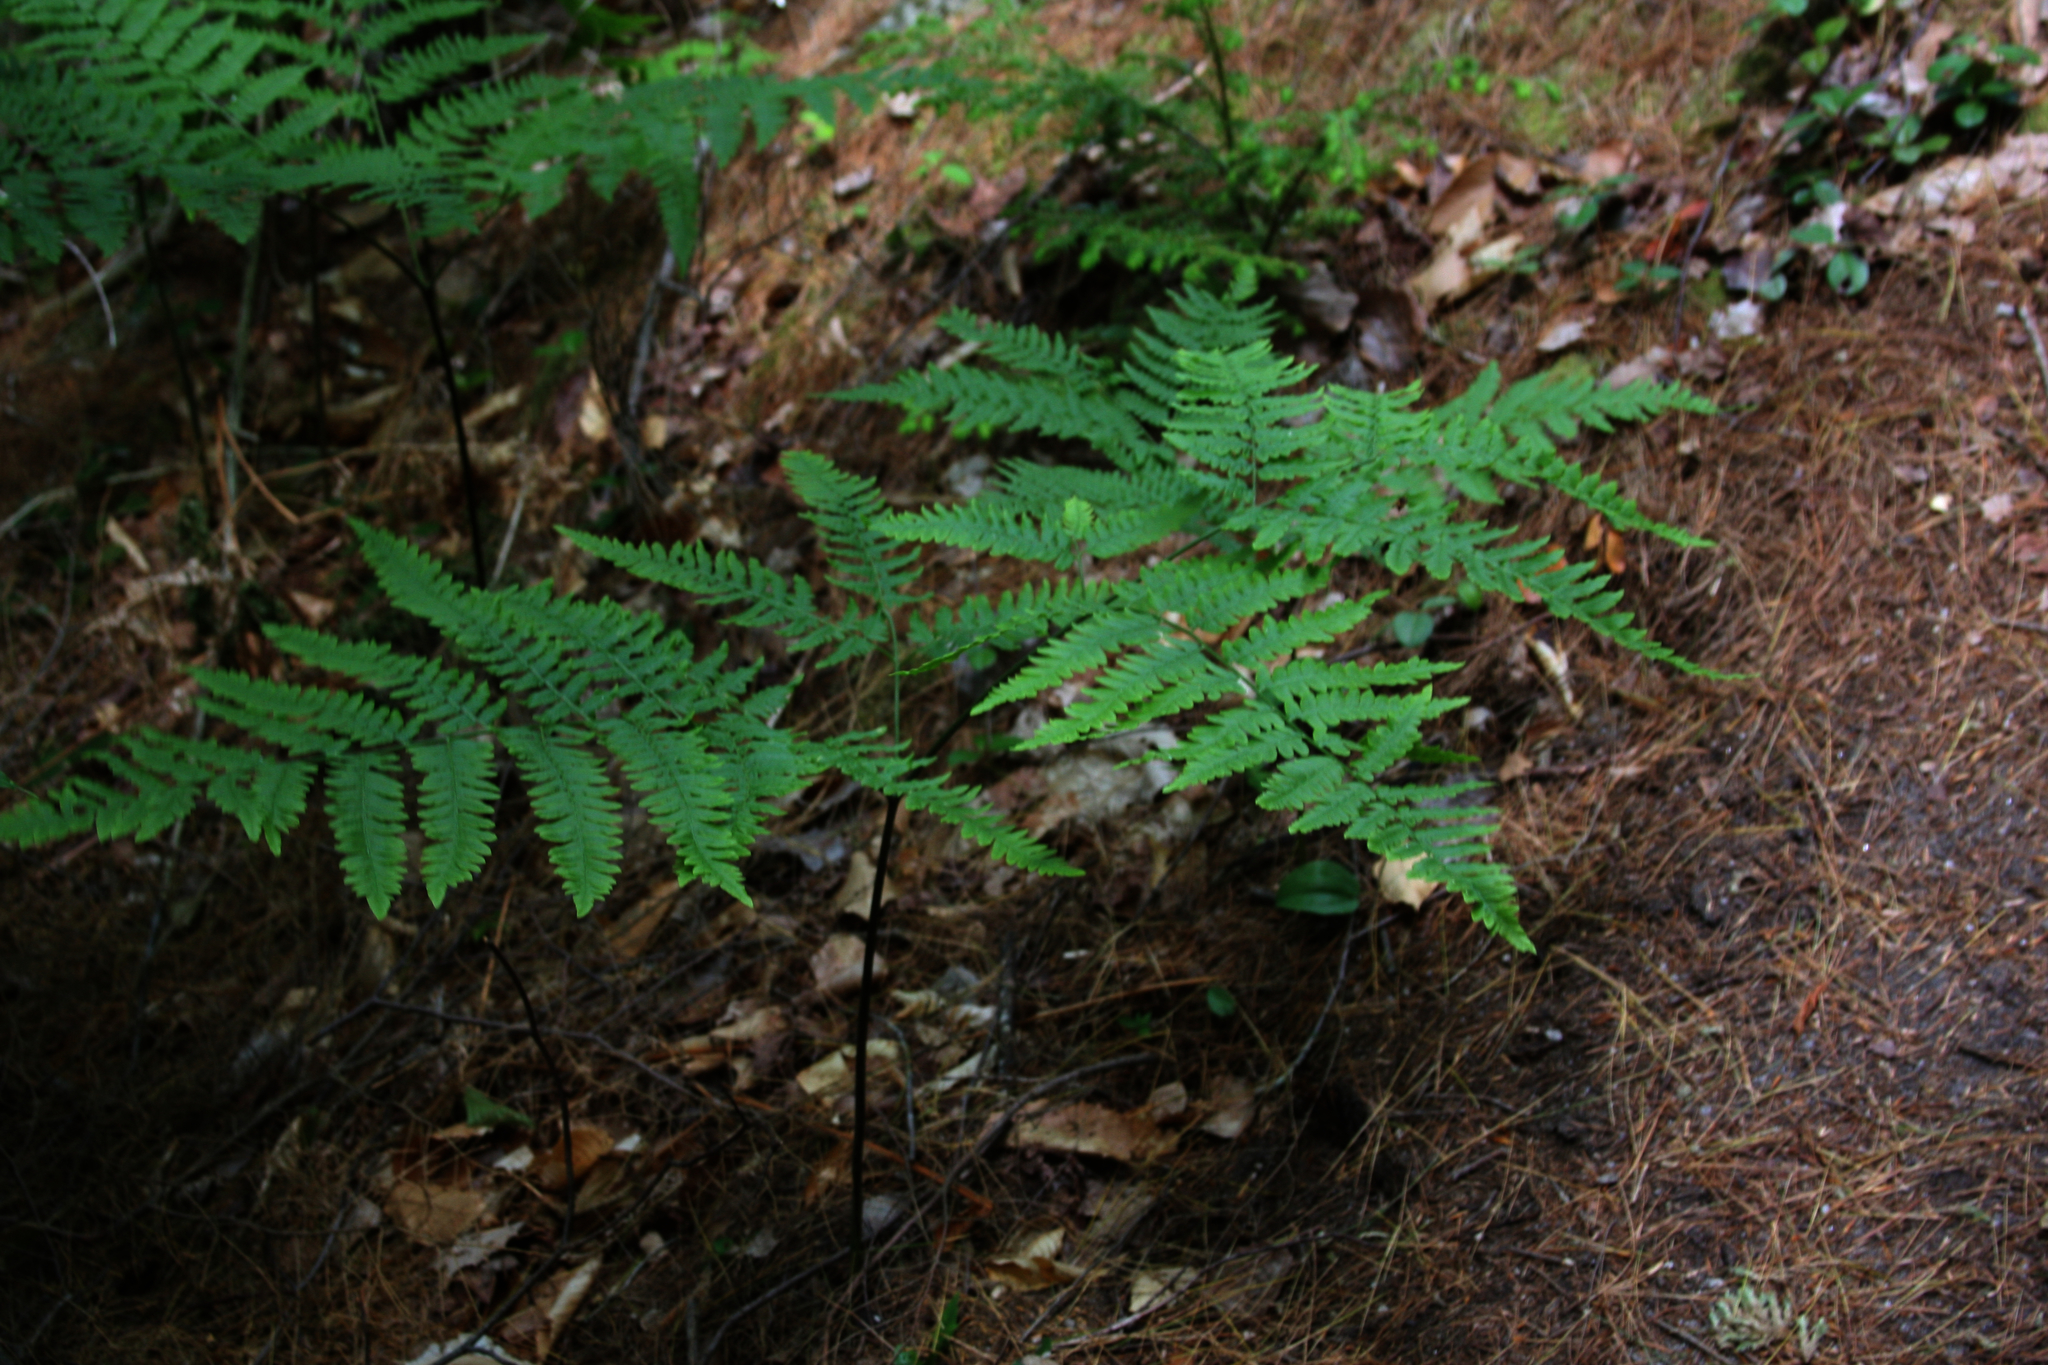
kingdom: Plantae
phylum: Tracheophyta
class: Polypodiopsida
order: Polypodiales
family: Dennstaedtiaceae
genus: Pteridium
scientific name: Pteridium aquilinum
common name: Bracken
